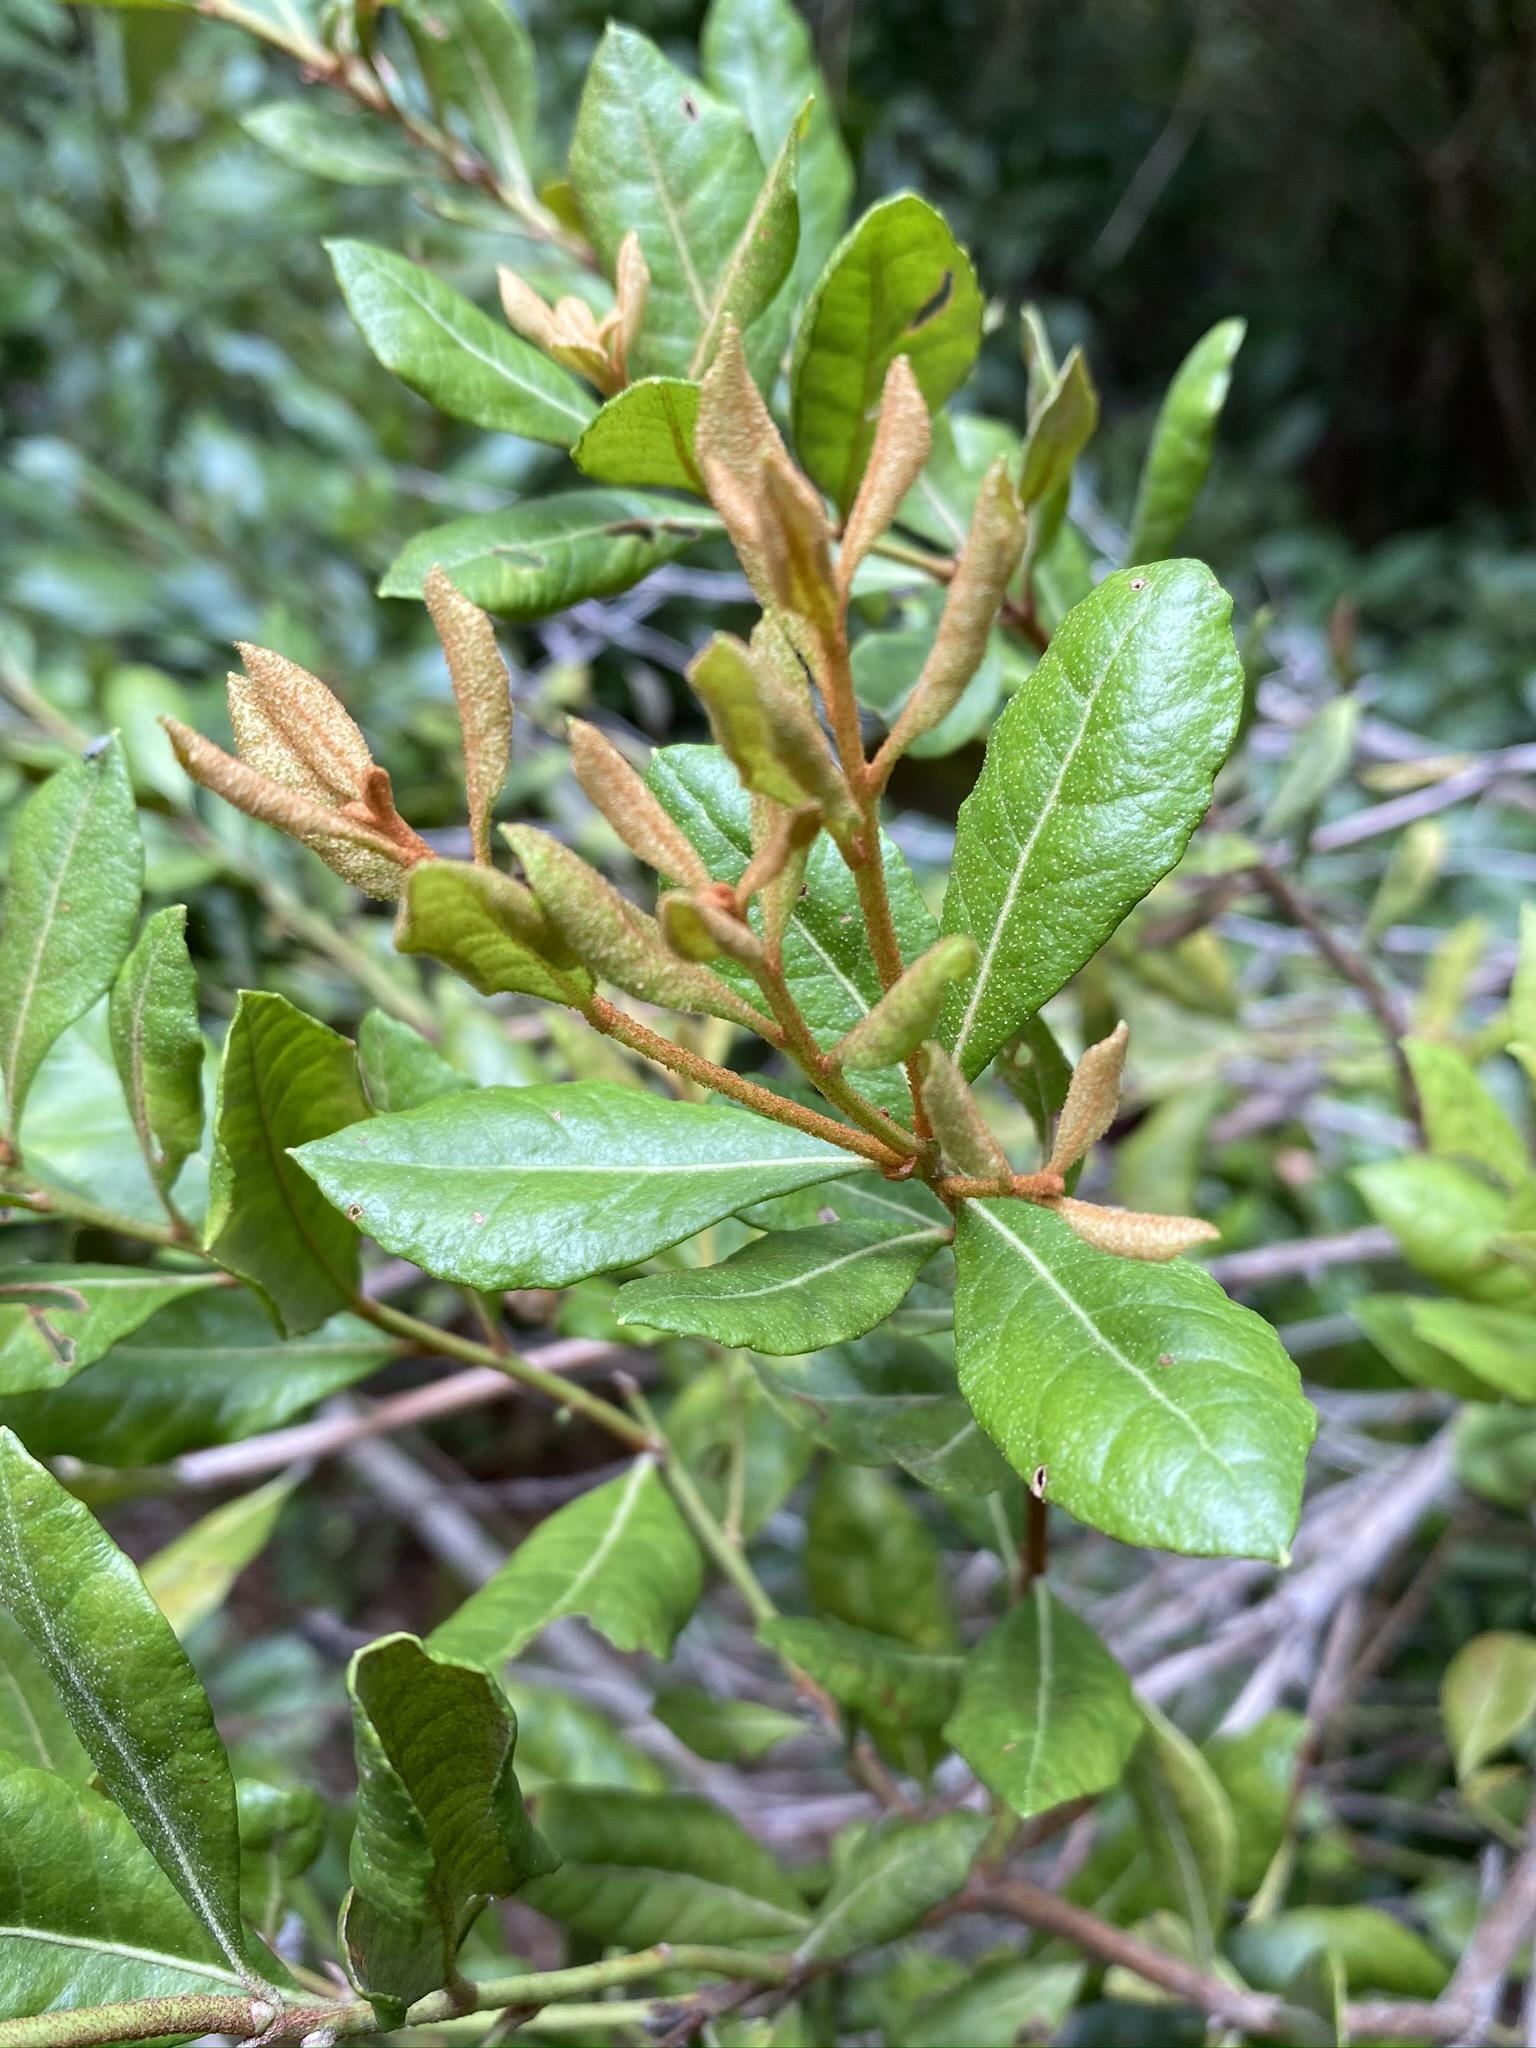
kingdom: Plantae
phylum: Tracheophyta
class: Magnoliopsida
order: Ericales
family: Ericaceae
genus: Lyonia
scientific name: Lyonia ferruginea
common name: Rusty lyonia
